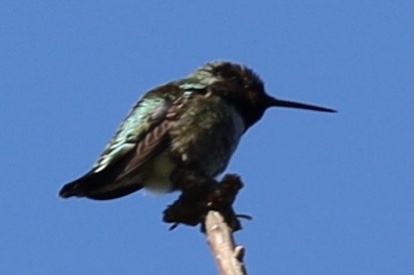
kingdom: Animalia
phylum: Chordata
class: Aves
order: Apodiformes
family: Trochilidae
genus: Calypte
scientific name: Calypte anna
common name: Anna's hummingbird
